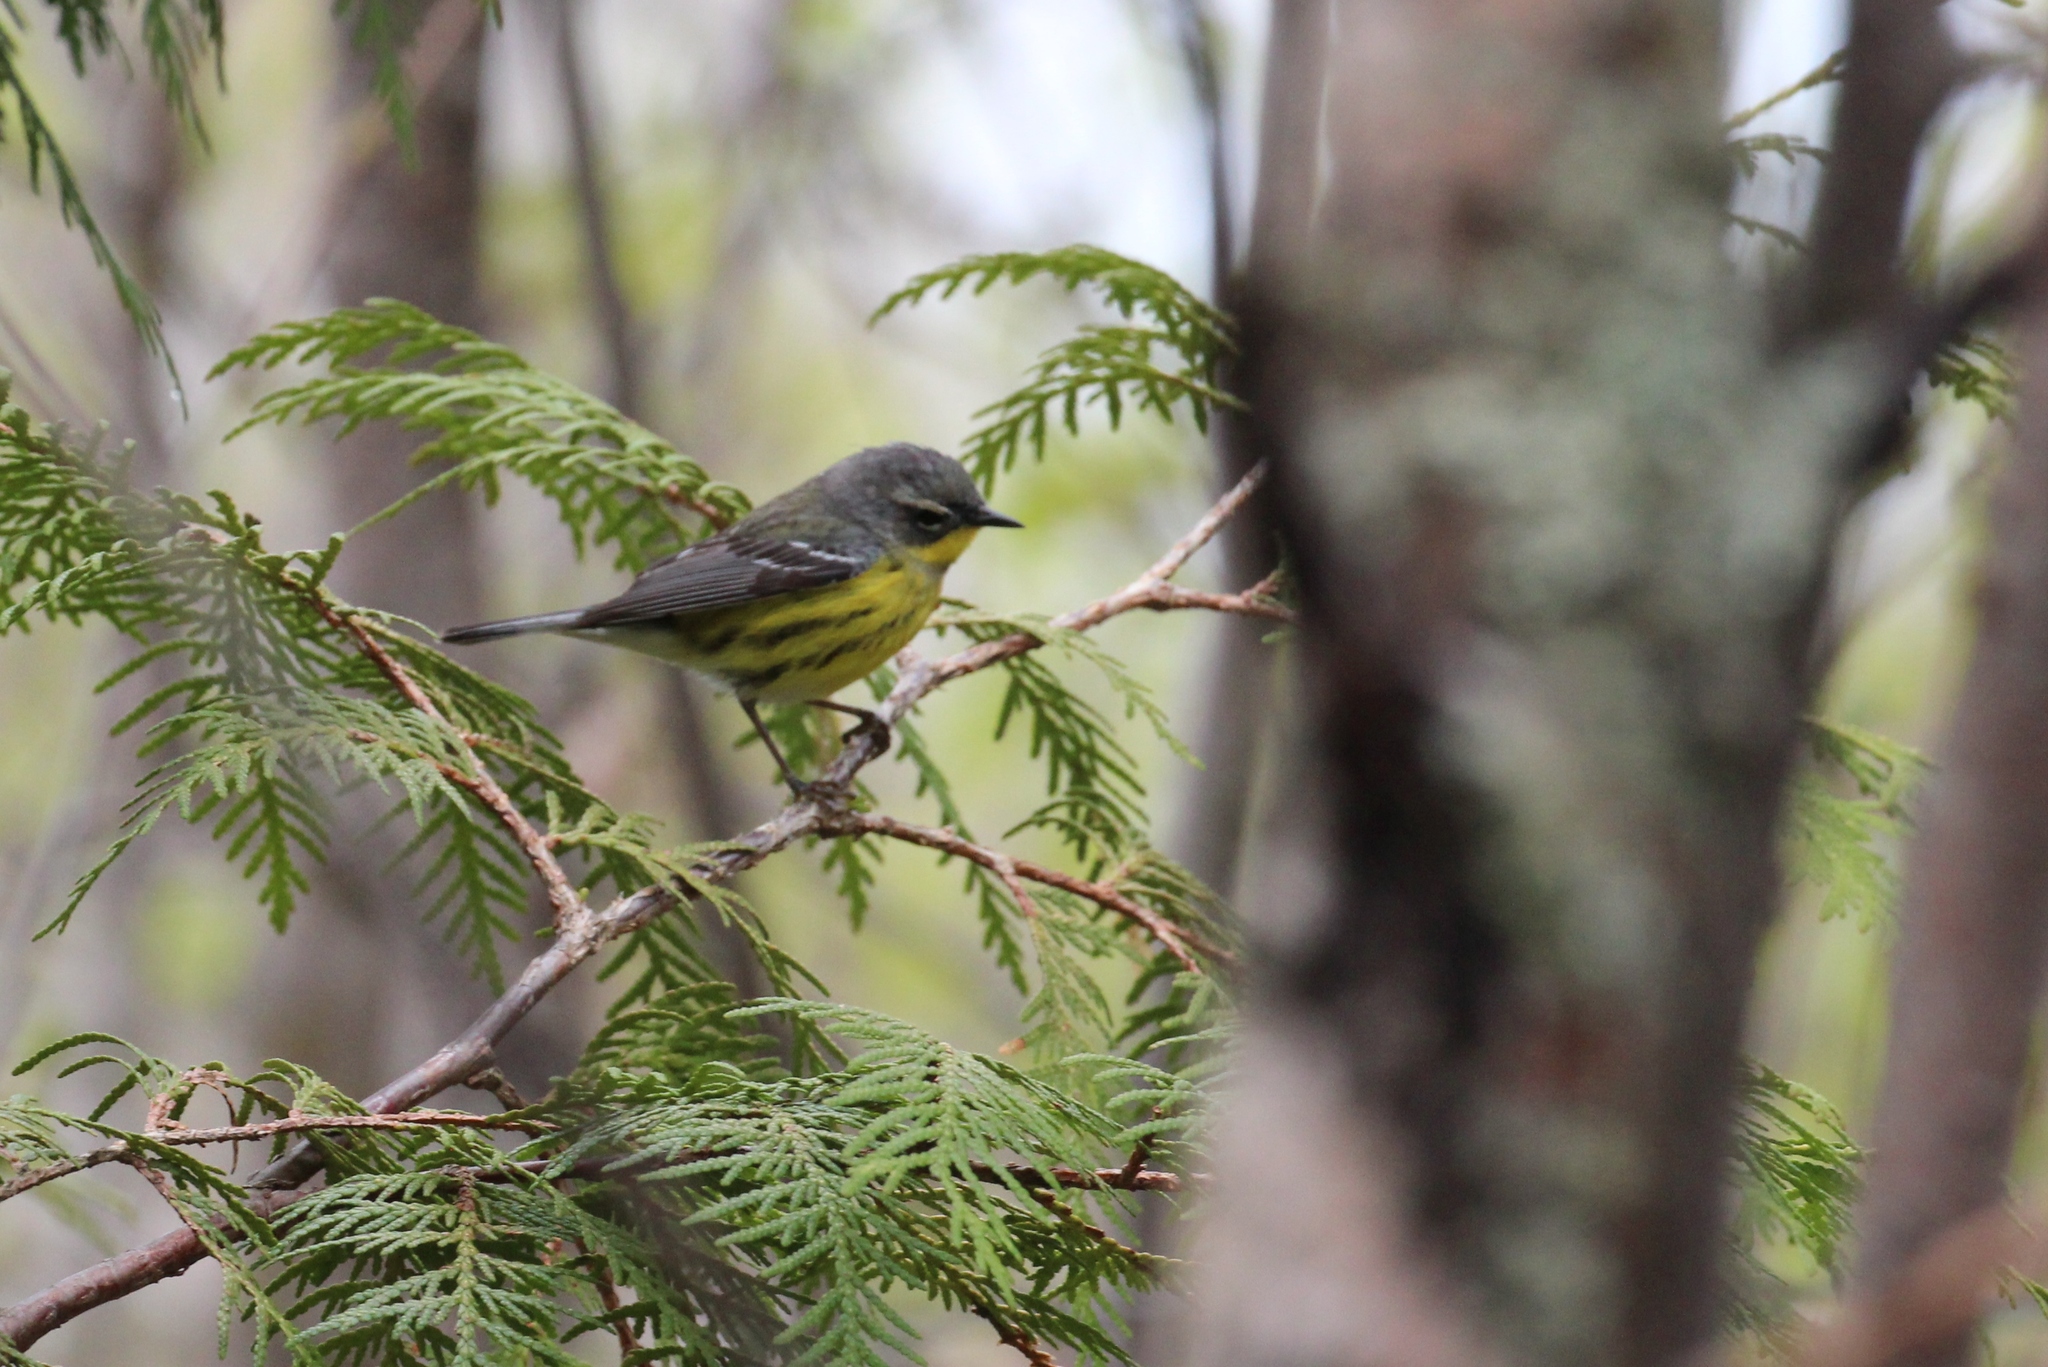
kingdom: Animalia
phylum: Chordata
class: Aves
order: Passeriformes
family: Parulidae
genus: Setophaga
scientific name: Setophaga magnolia
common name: Magnolia warbler
